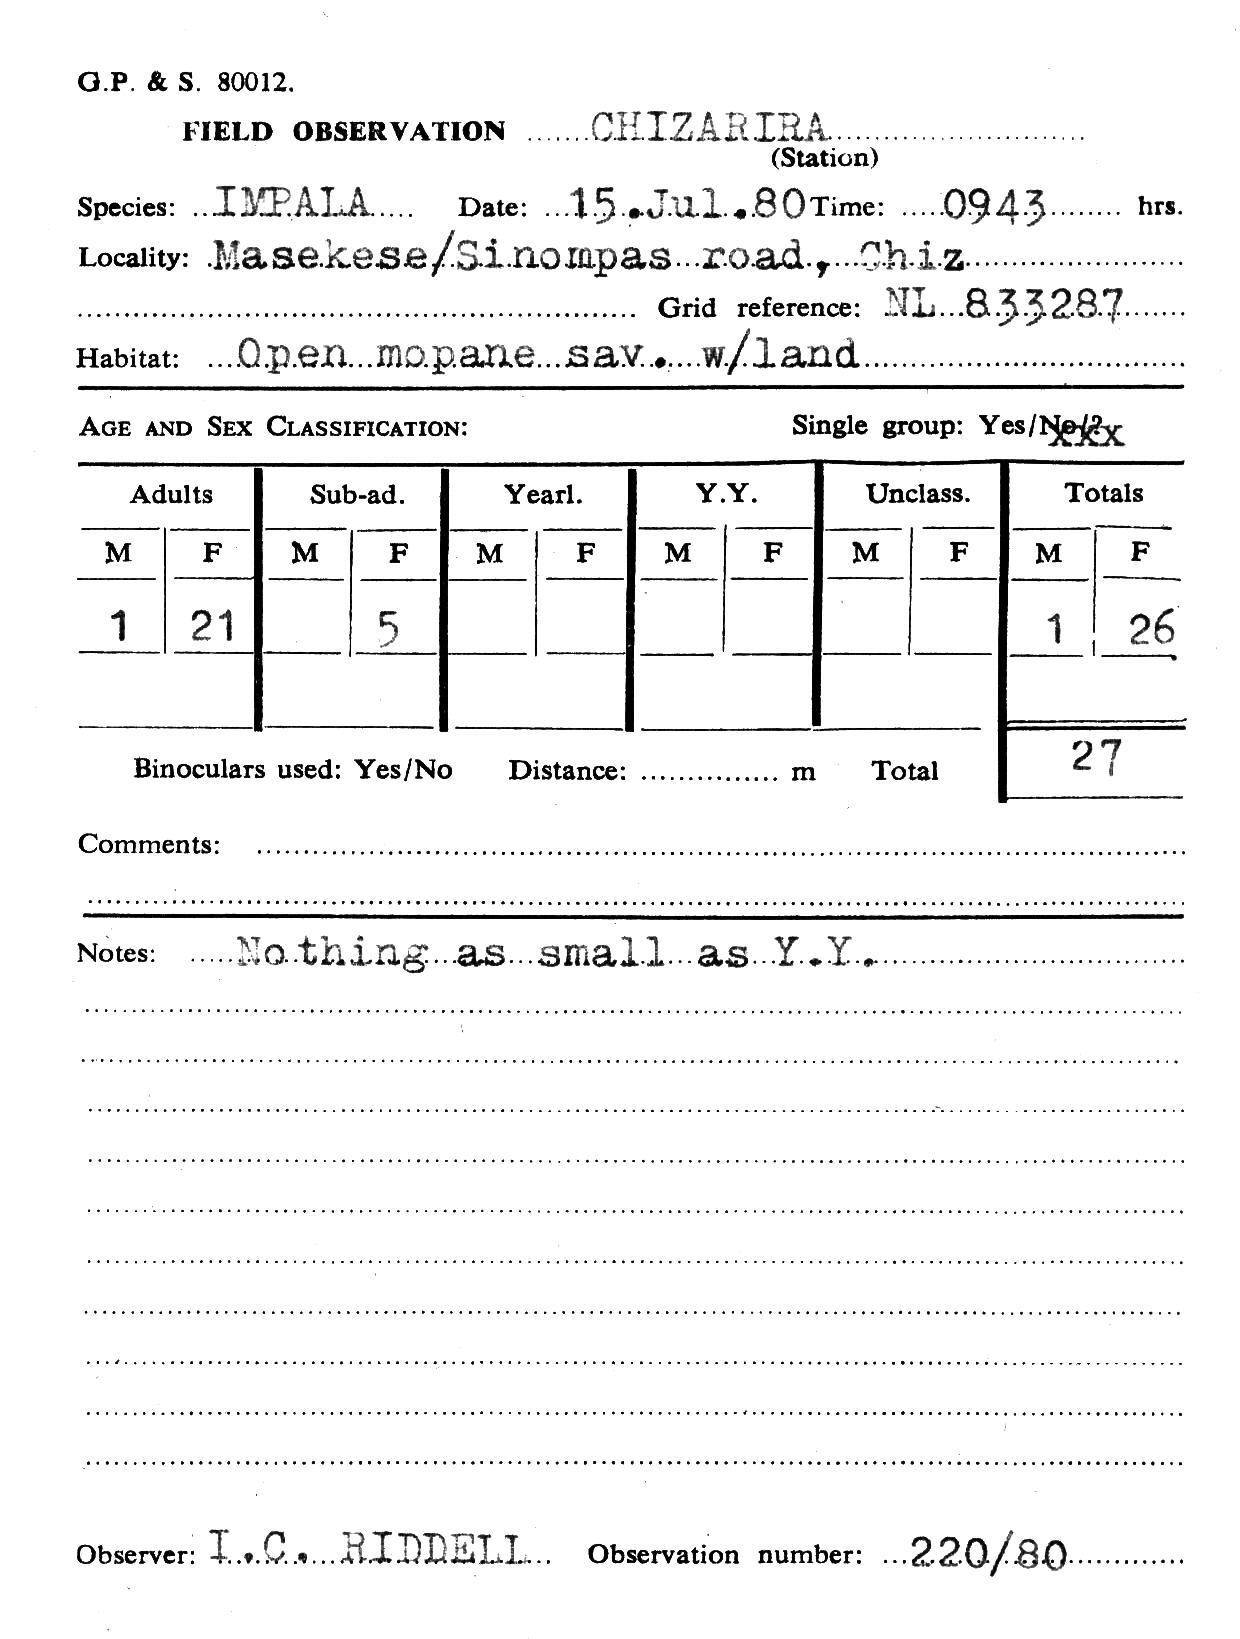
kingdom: Animalia
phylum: Chordata
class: Mammalia
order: Artiodactyla
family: Bovidae
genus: Aepyceros
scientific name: Aepyceros melampus
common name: Impala
